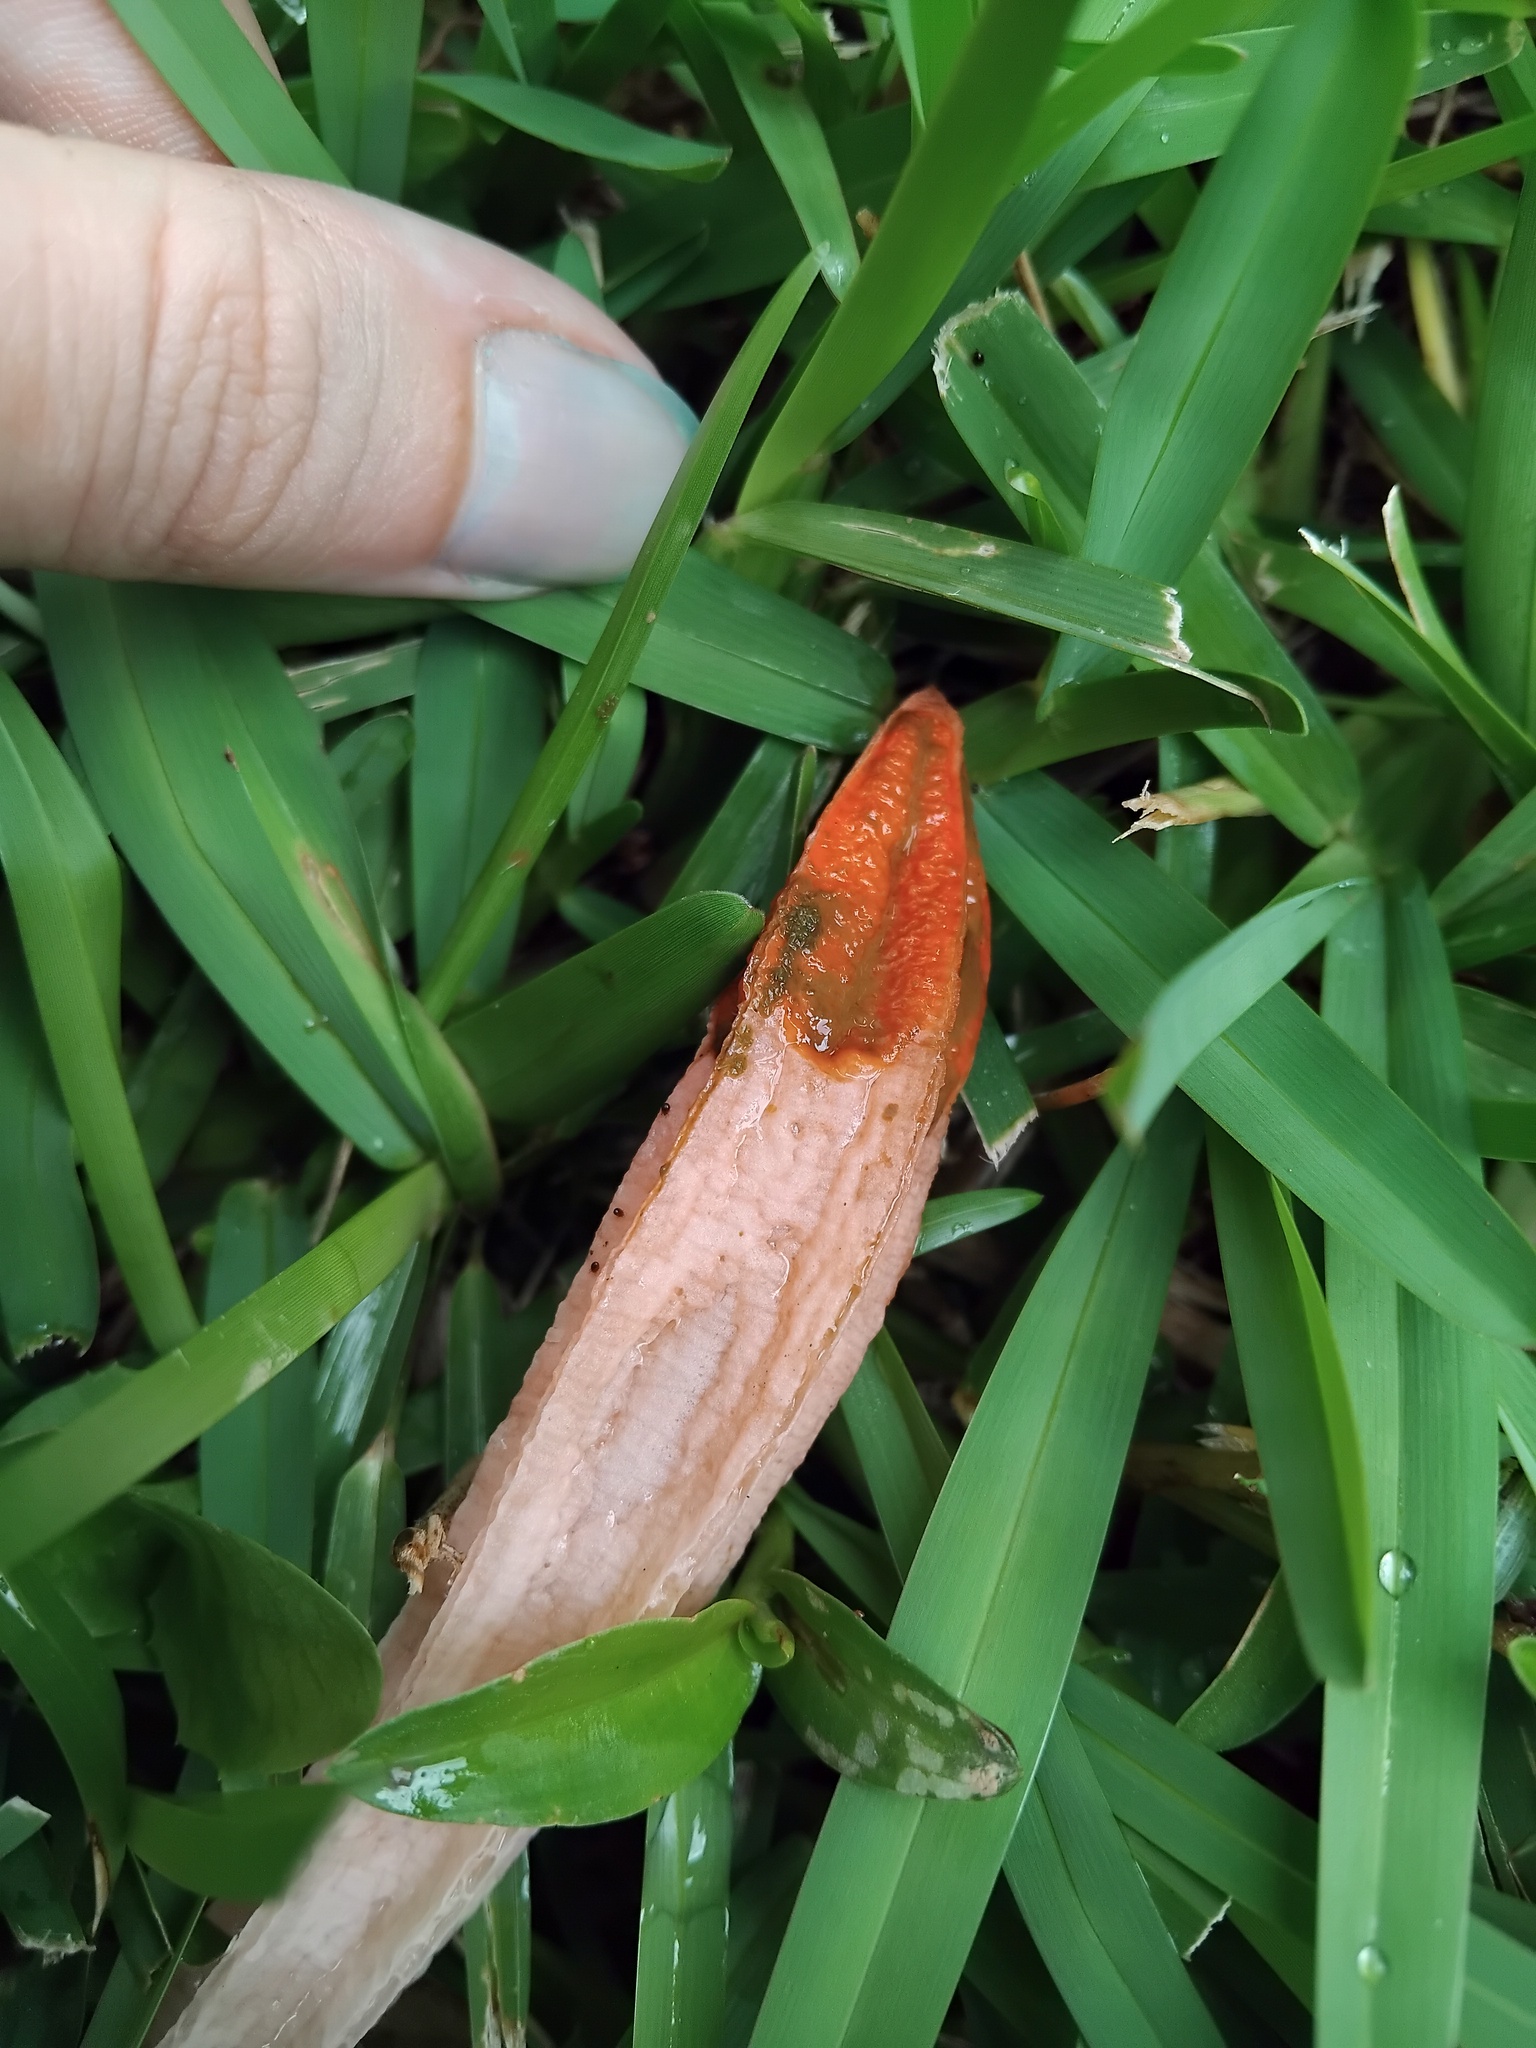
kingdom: Fungi
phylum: Basidiomycota
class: Agaricomycetes
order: Phallales
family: Phallaceae
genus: Lysurus
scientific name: Lysurus mokusin
